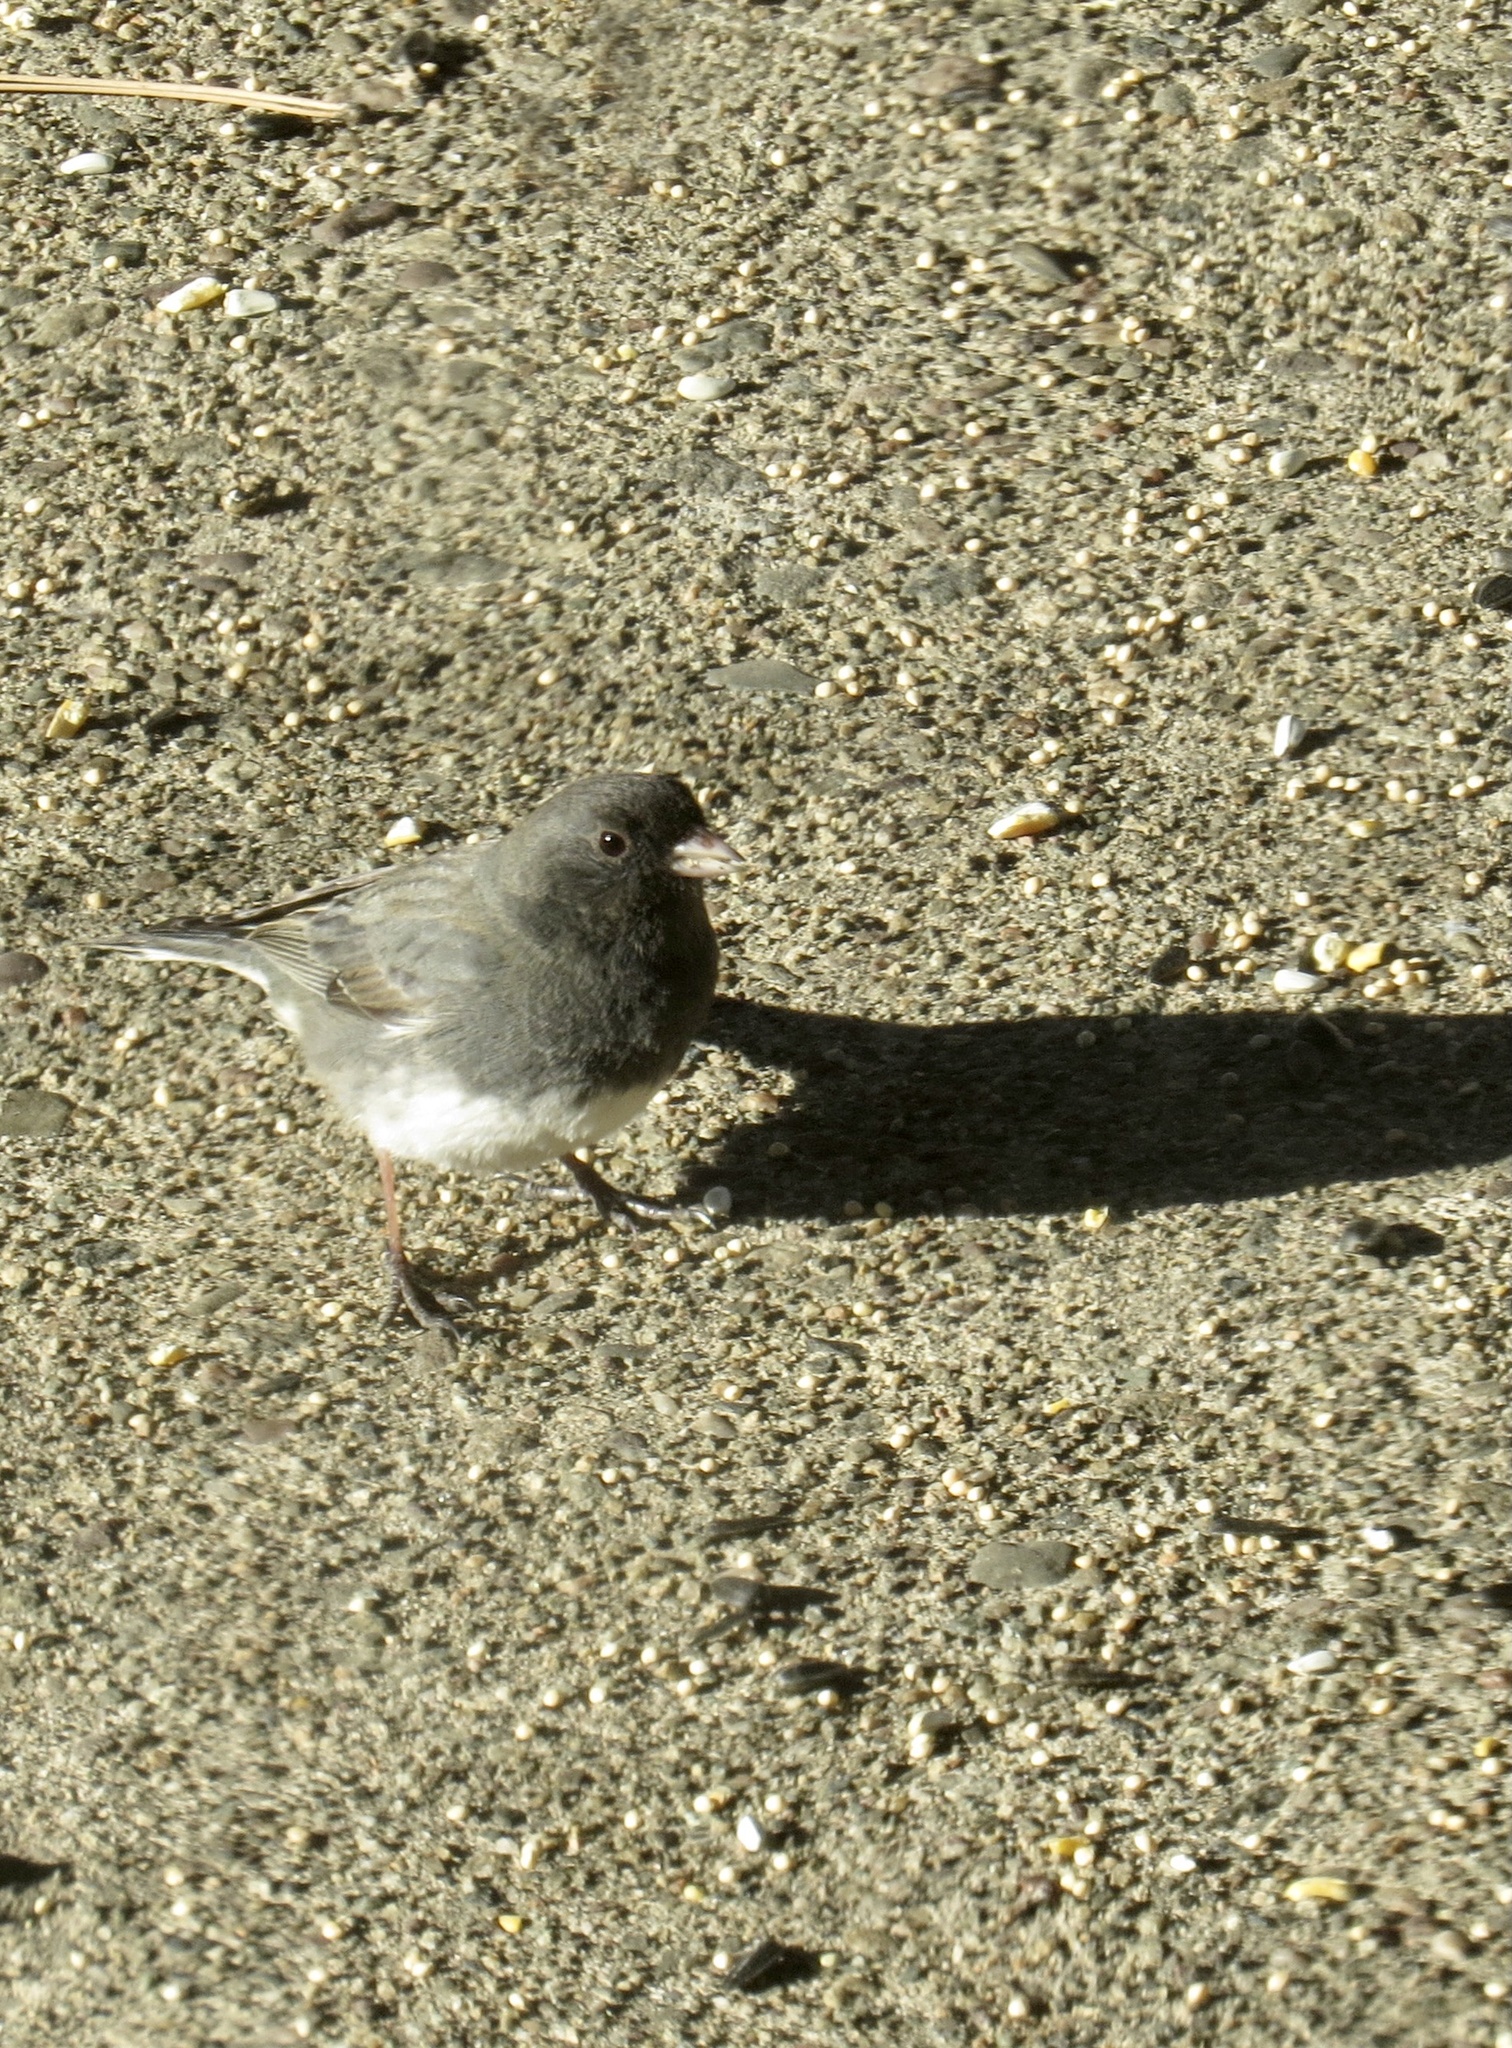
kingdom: Animalia
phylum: Chordata
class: Aves
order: Passeriformes
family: Passerellidae
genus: Junco
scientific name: Junco hyemalis
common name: Dark-eyed junco
